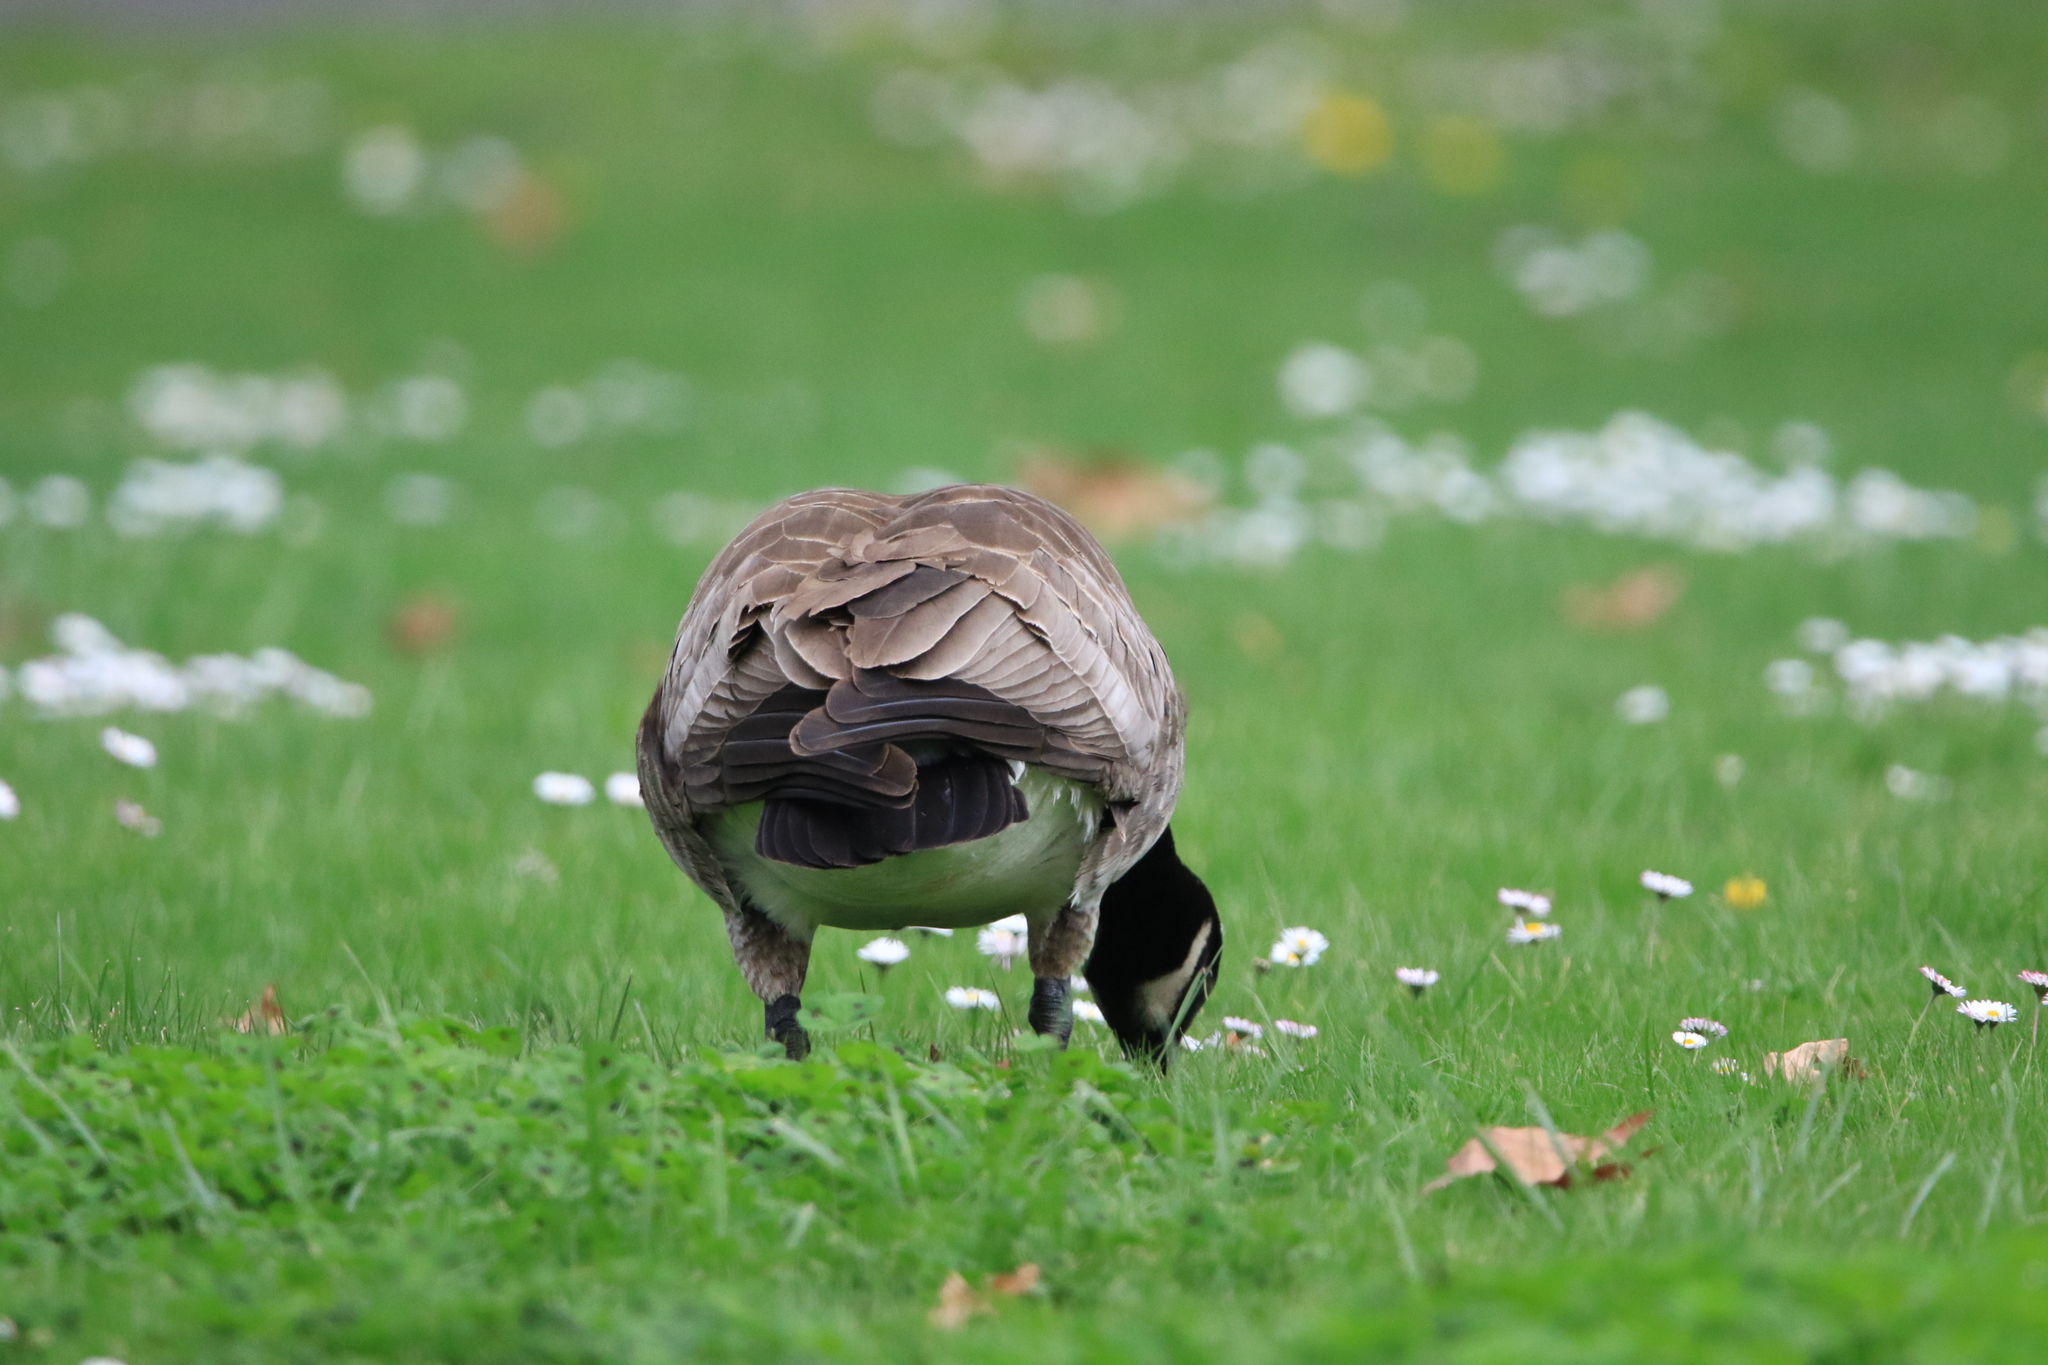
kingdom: Animalia
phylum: Chordata
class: Aves
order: Anseriformes
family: Anatidae
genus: Branta
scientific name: Branta canadensis
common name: Canada goose
